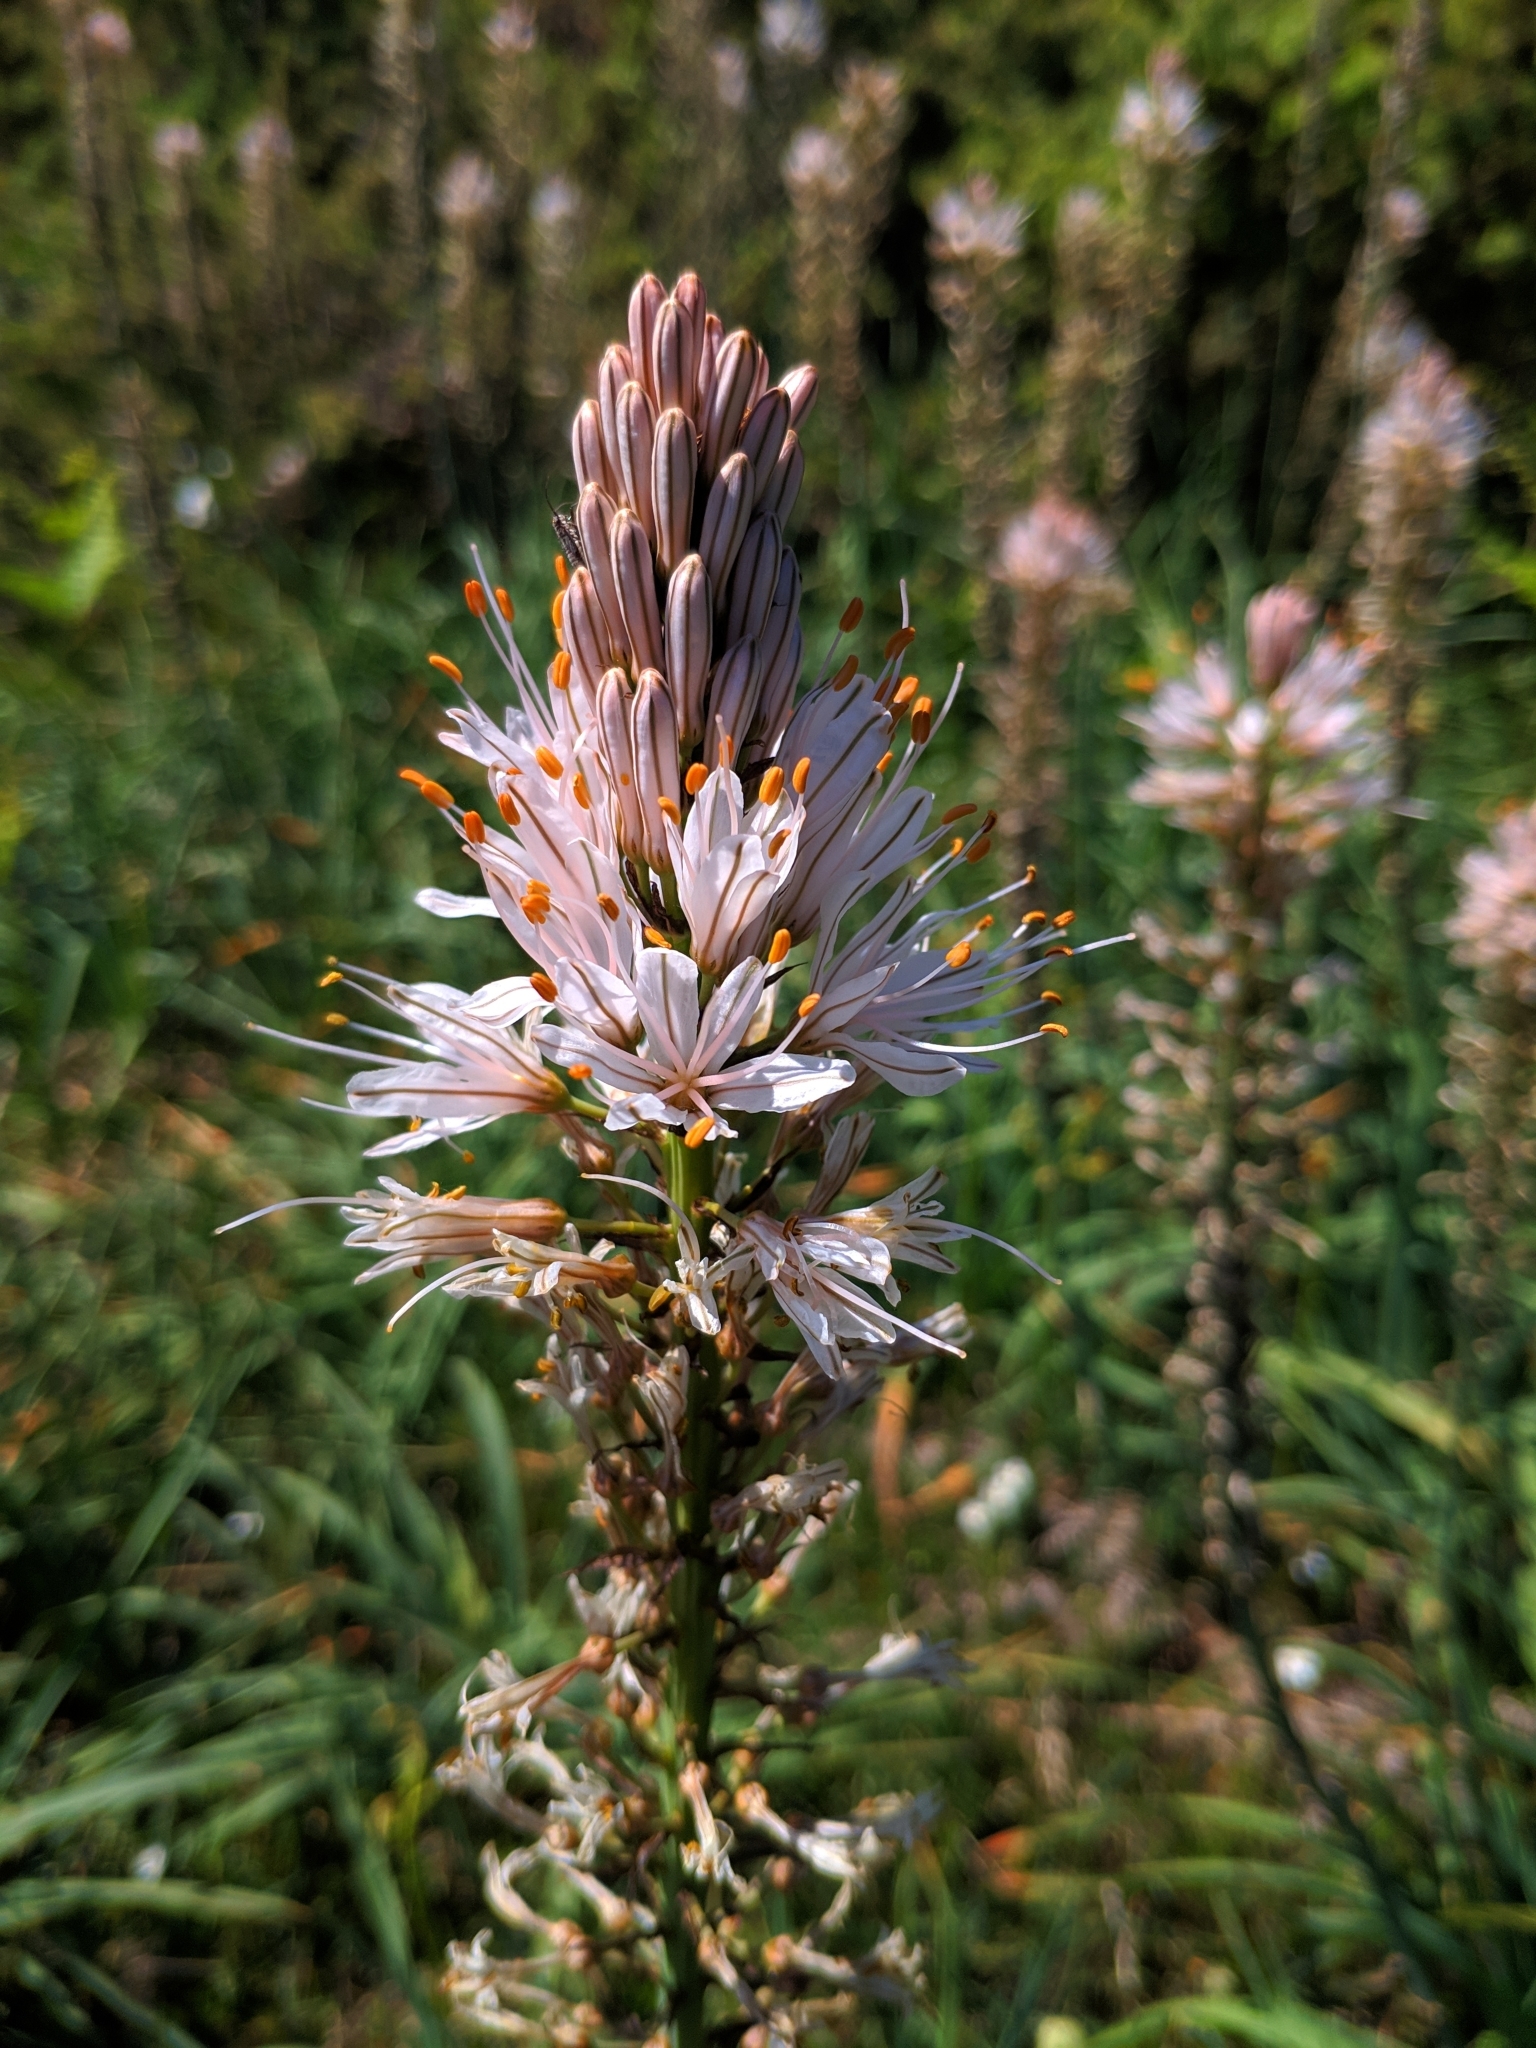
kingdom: Plantae
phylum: Tracheophyta
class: Liliopsida
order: Asparagales
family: Asphodelaceae
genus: Asphodelus
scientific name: Asphodelus albus
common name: White asphodel
